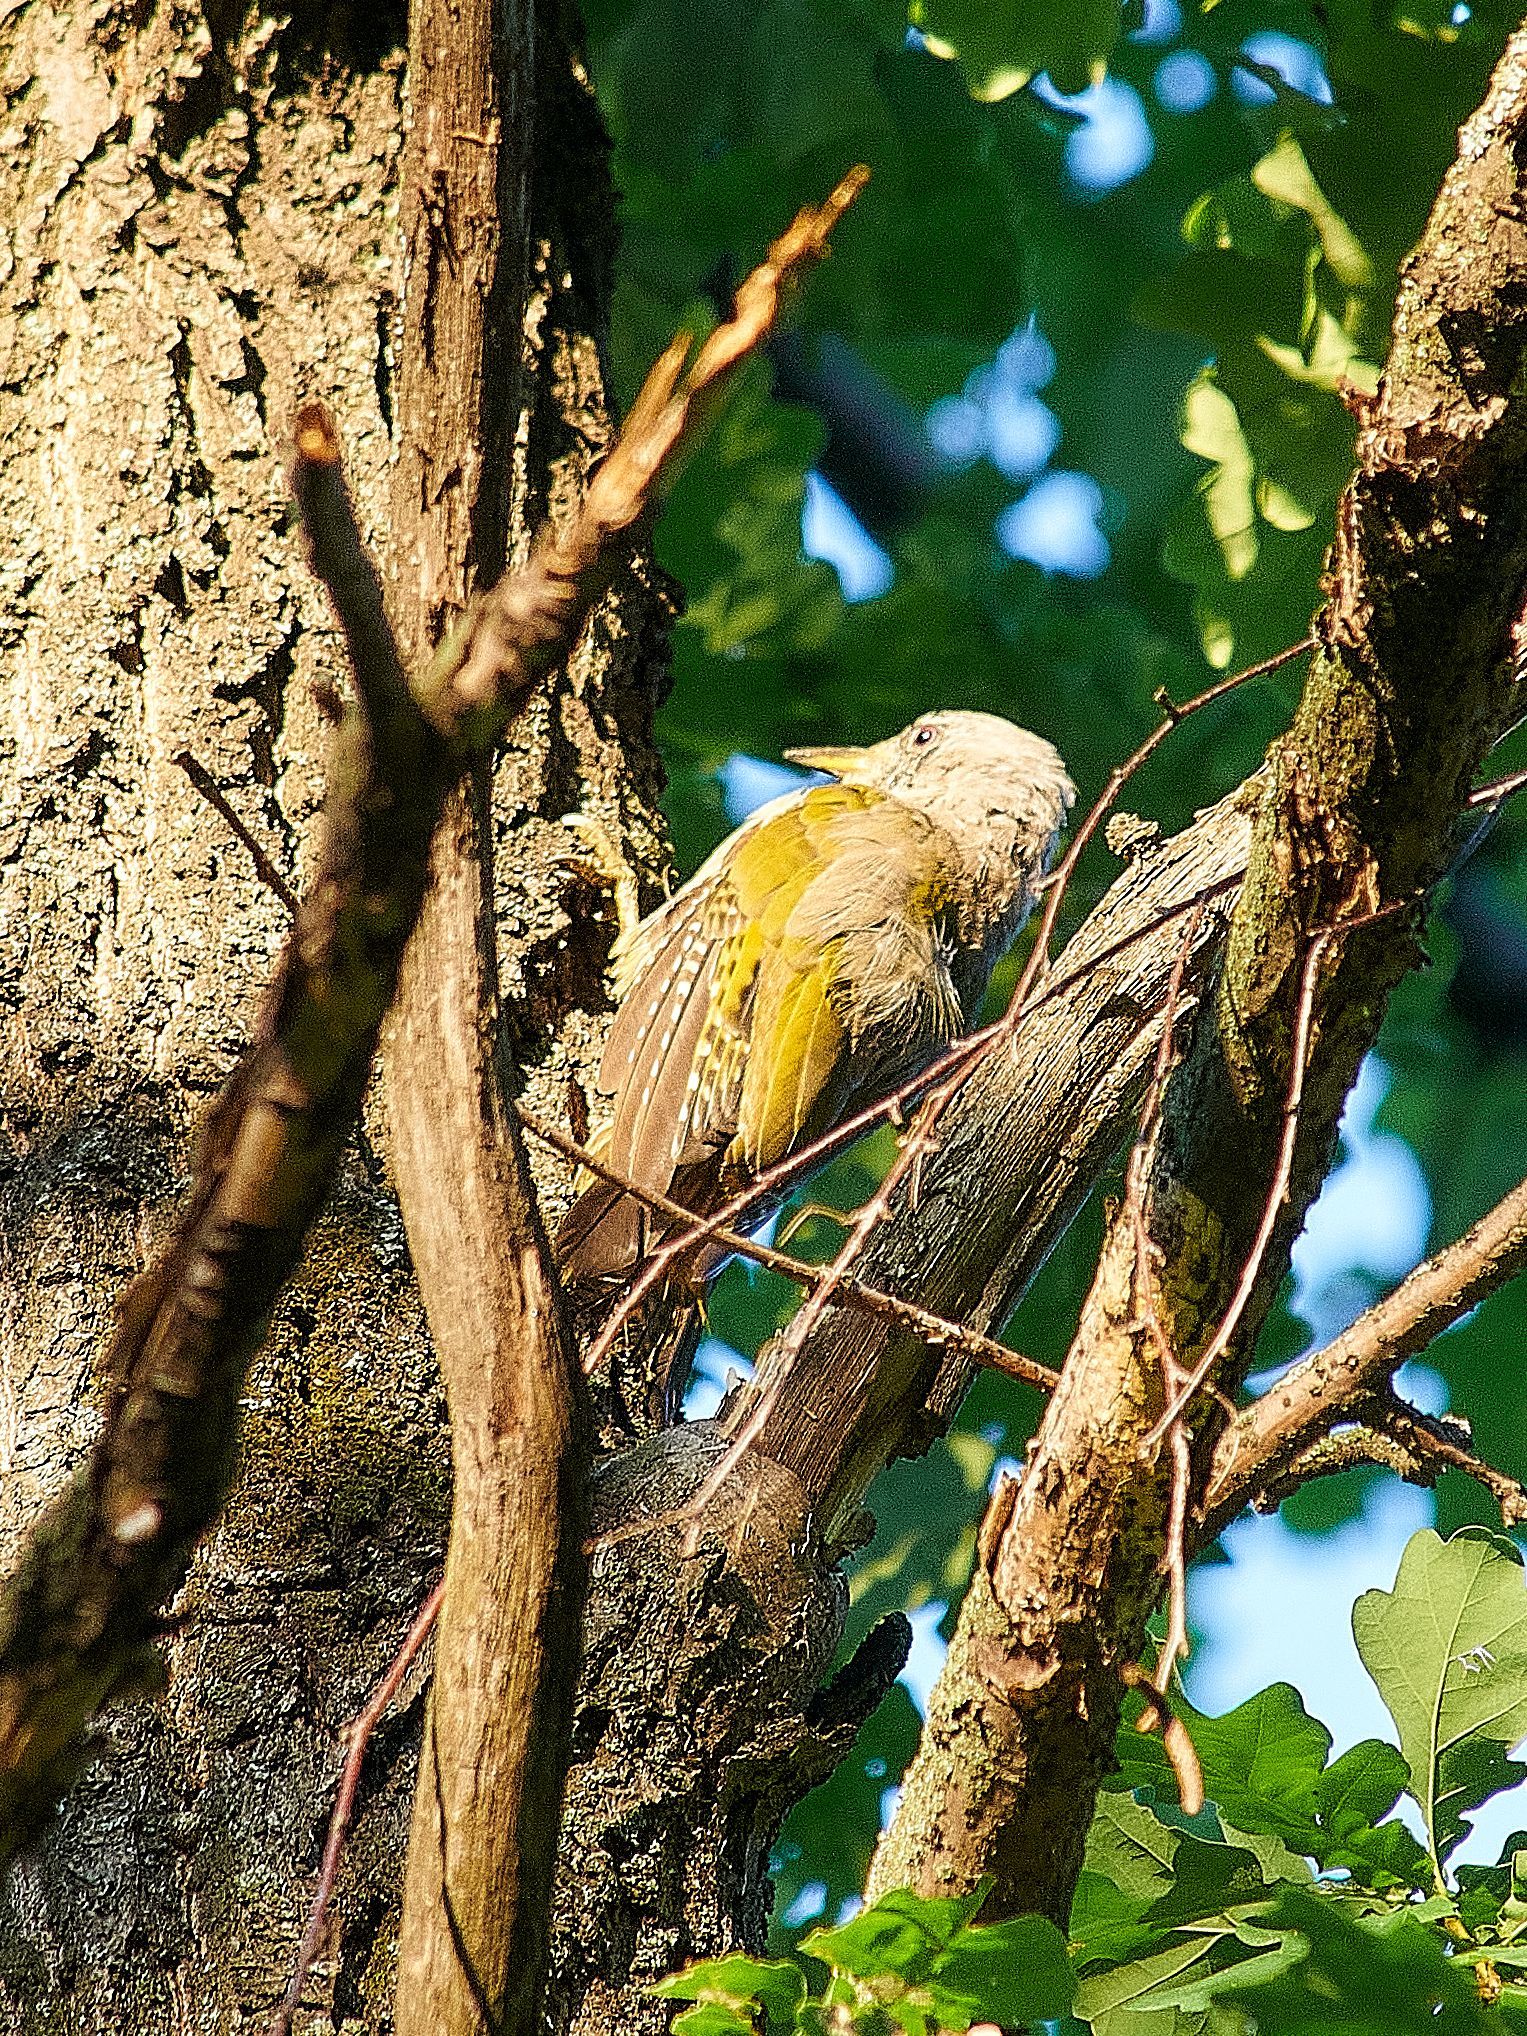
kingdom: Animalia
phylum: Chordata
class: Aves
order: Piciformes
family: Picidae
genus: Picus
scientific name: Picus canus
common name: Grey-headed woodpecker
